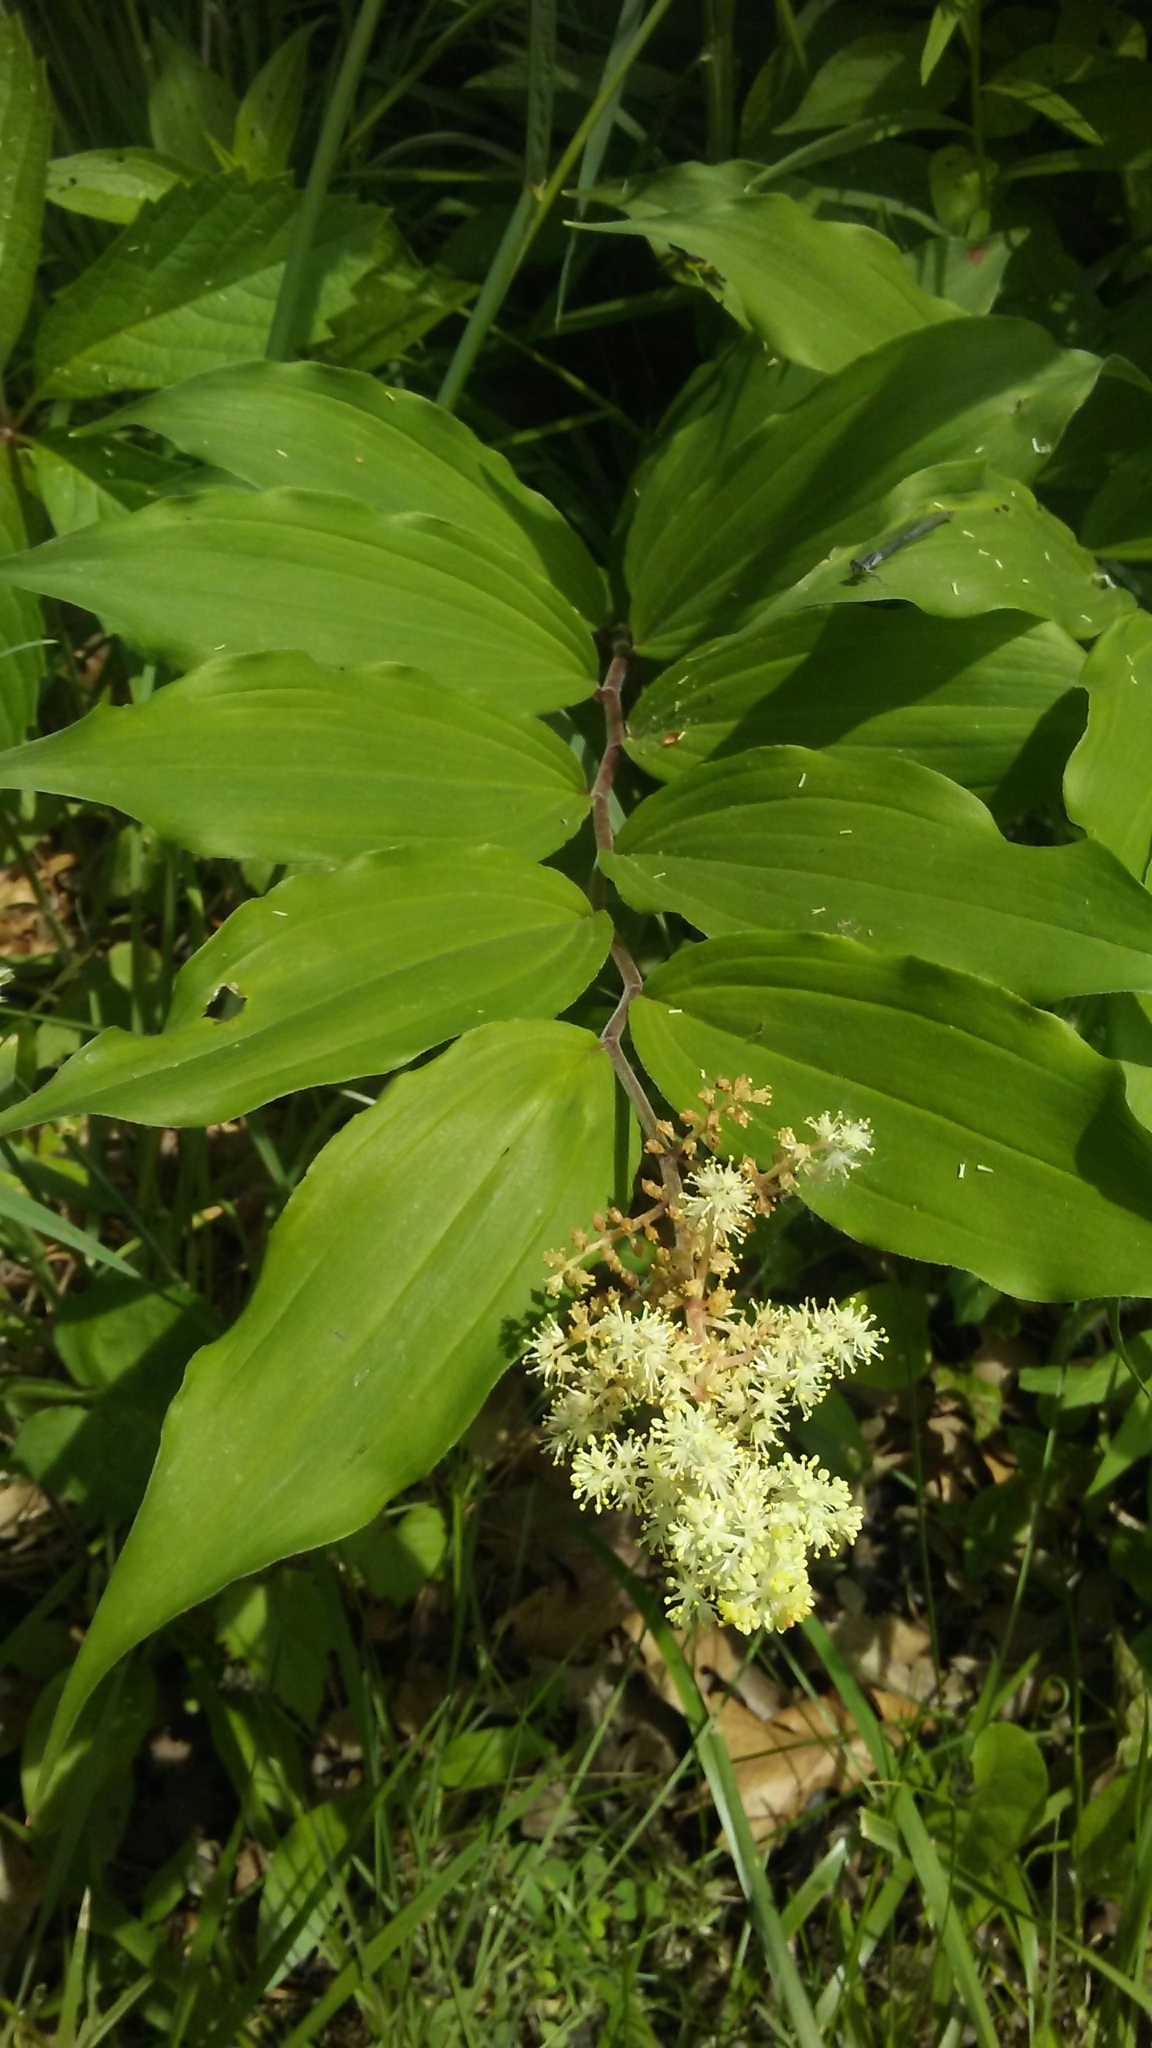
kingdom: Plantae
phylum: Tracheophyta
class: Liliopsida
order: Asparagales
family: Asparagaceae
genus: Maianthemum
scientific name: Maianthemum racemosum
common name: False spikenard
